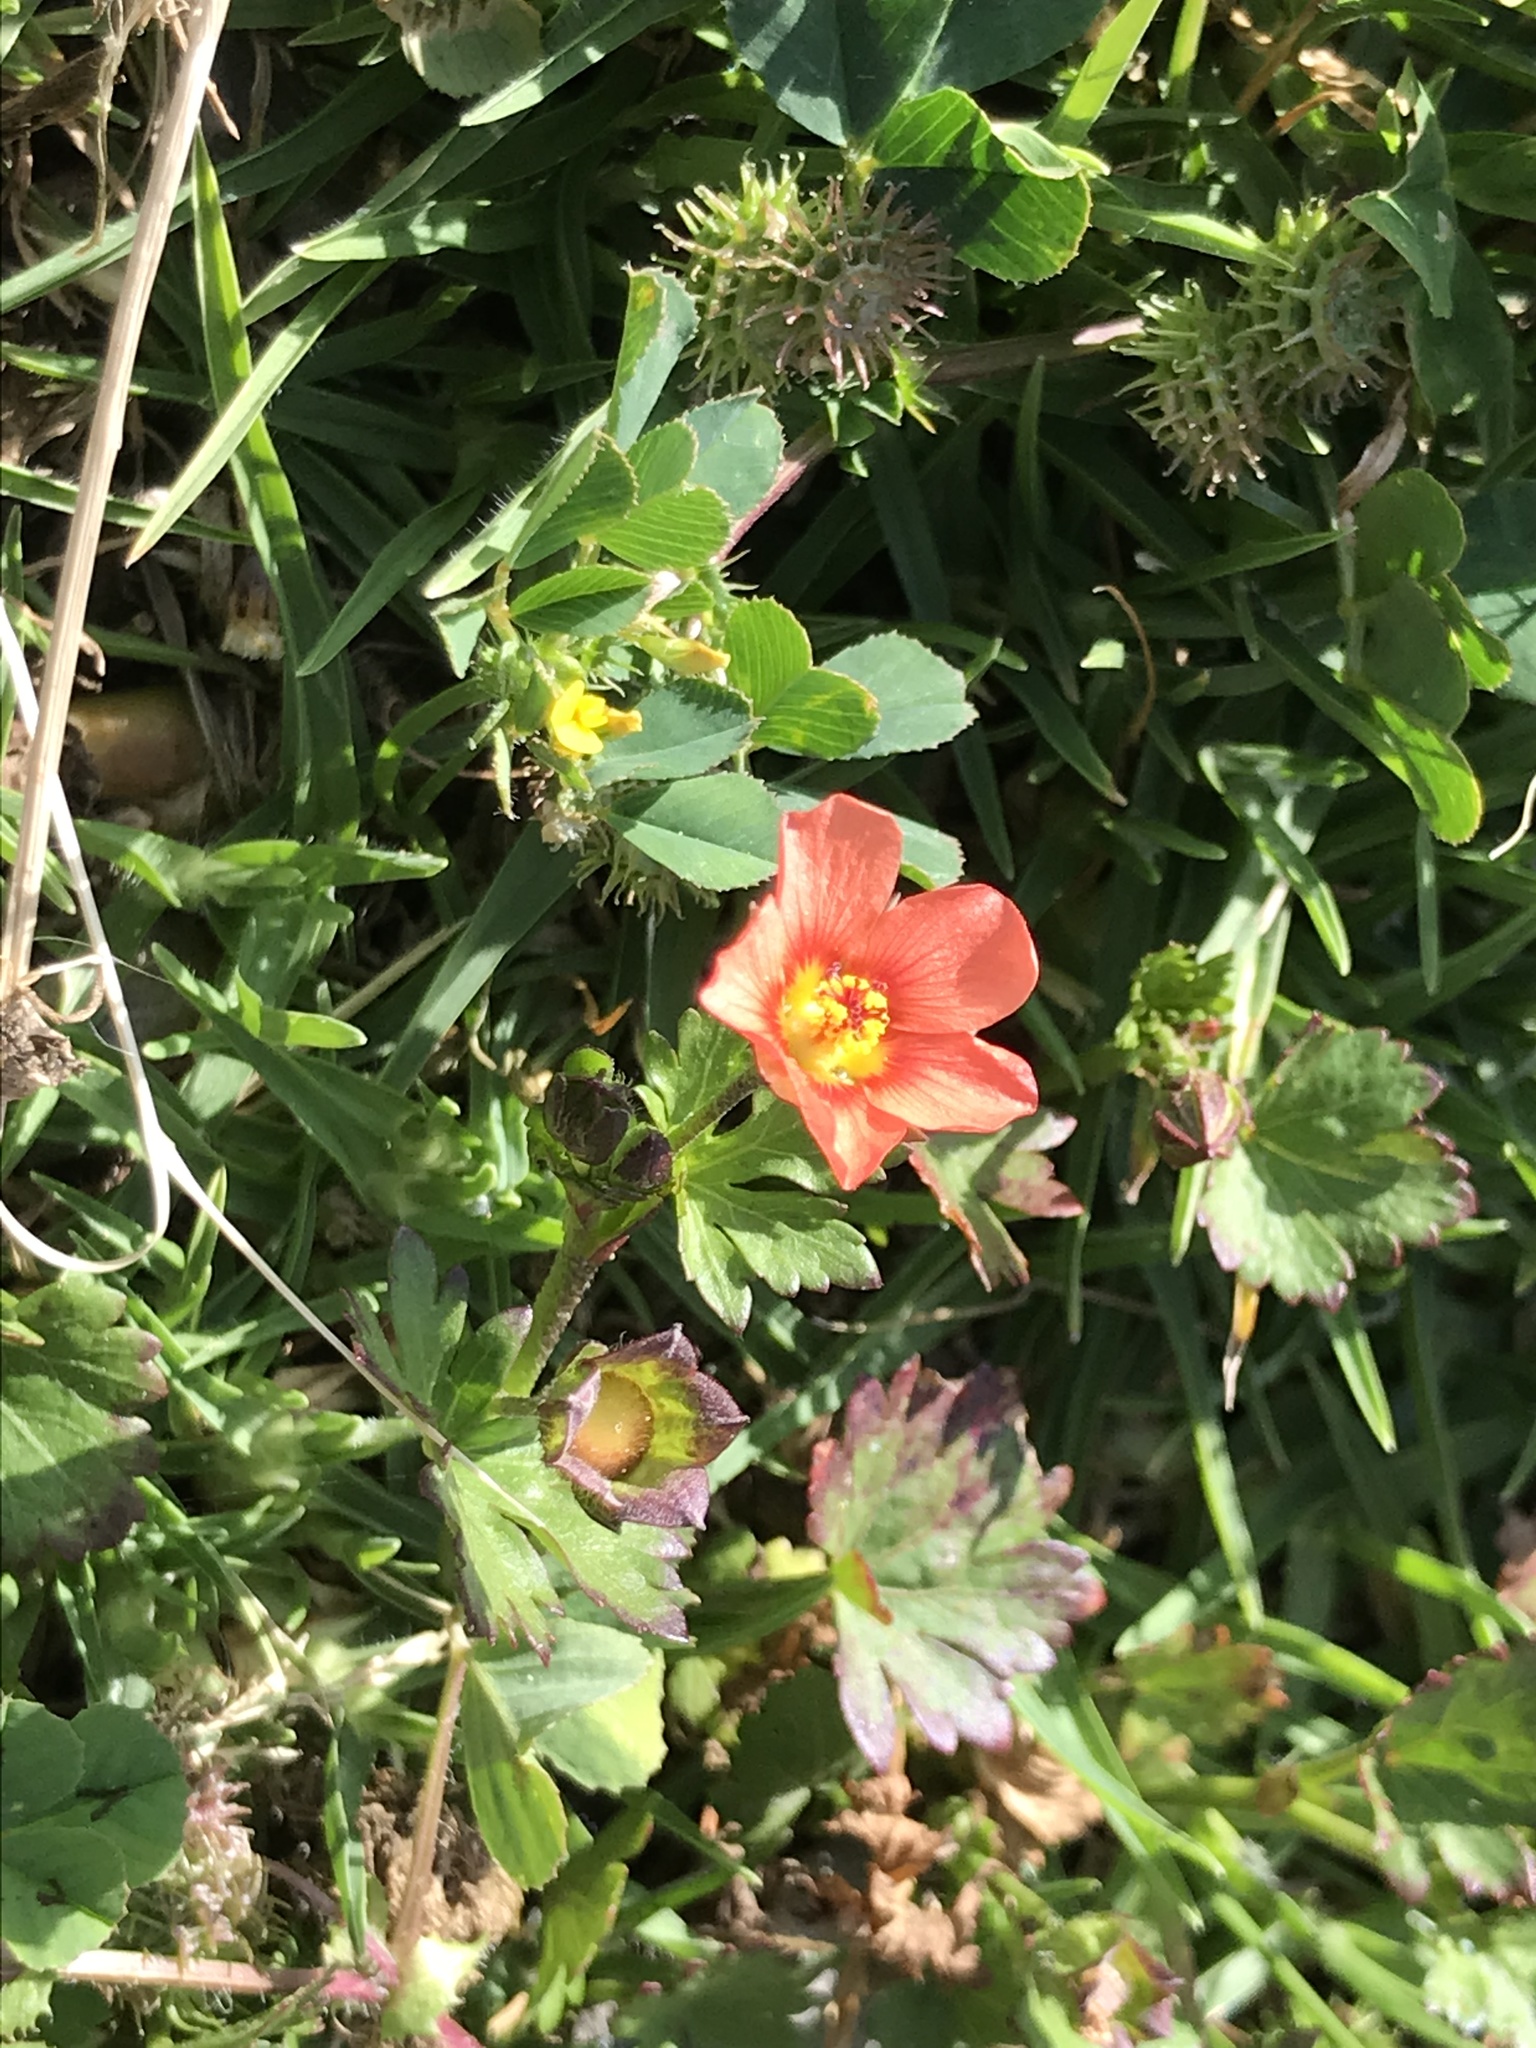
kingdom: Plantae
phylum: Tracheophyta
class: Magnoliopsida
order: Malvales
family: Malvaceae
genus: Modiola
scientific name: Modiola caroliniana
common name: Carolina bristlemallow
